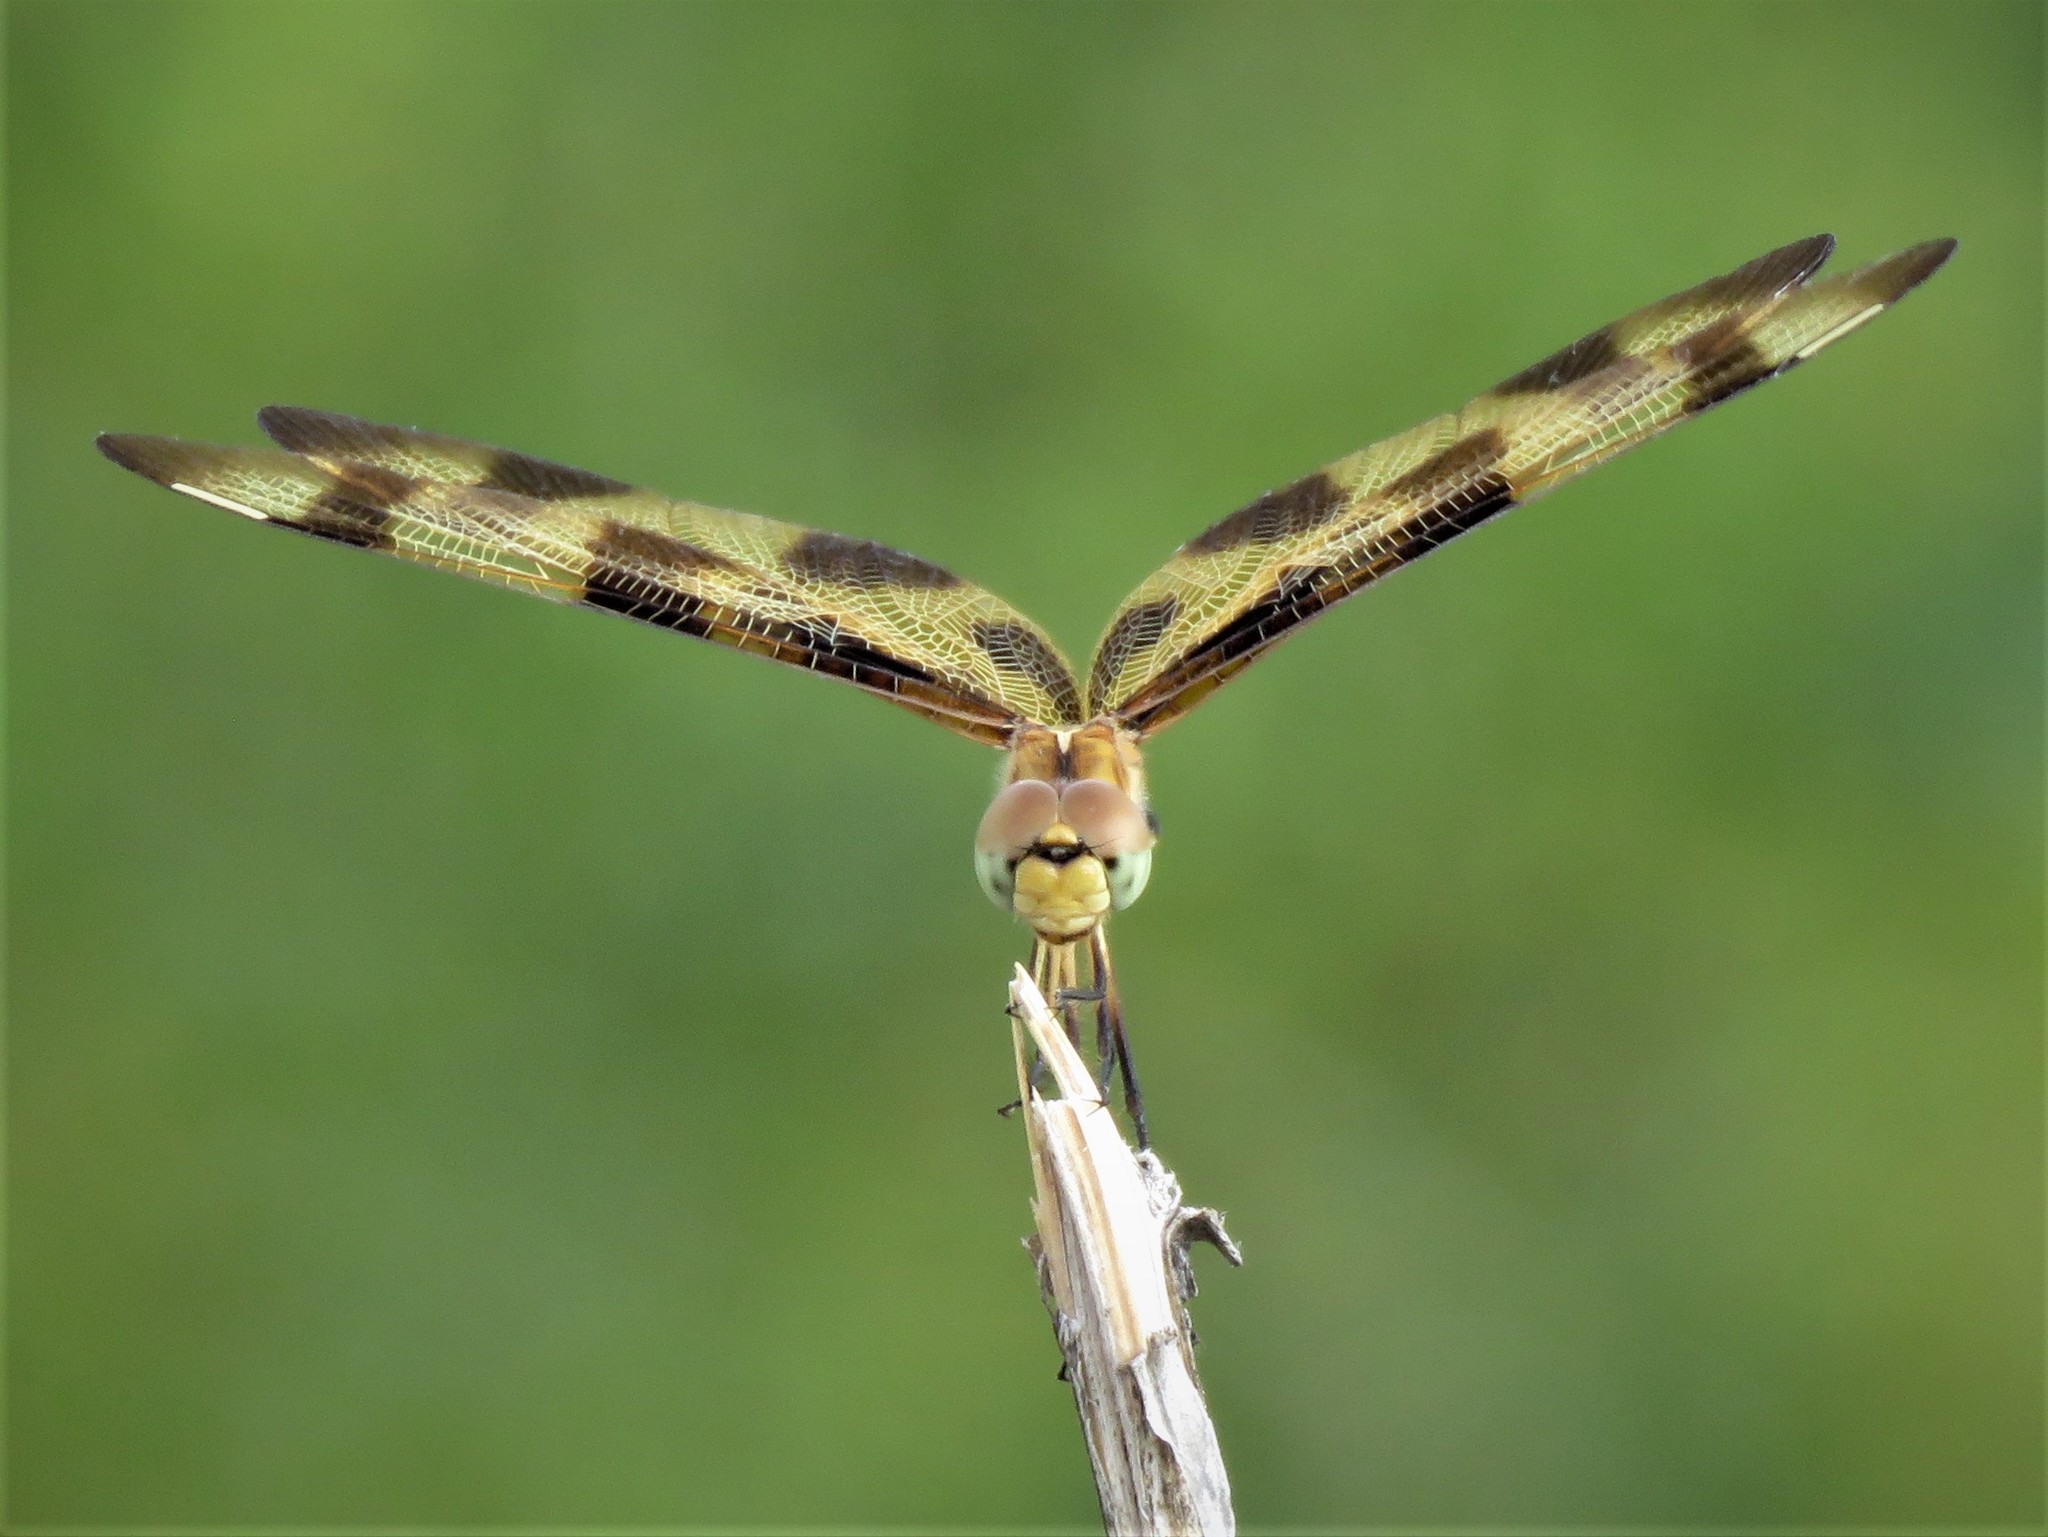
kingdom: Animalia
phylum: Arthropoda
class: Insecta
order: Odonata
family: Libellulidae
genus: Celithemis
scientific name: Celithemis eponina
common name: Halloween pennant
